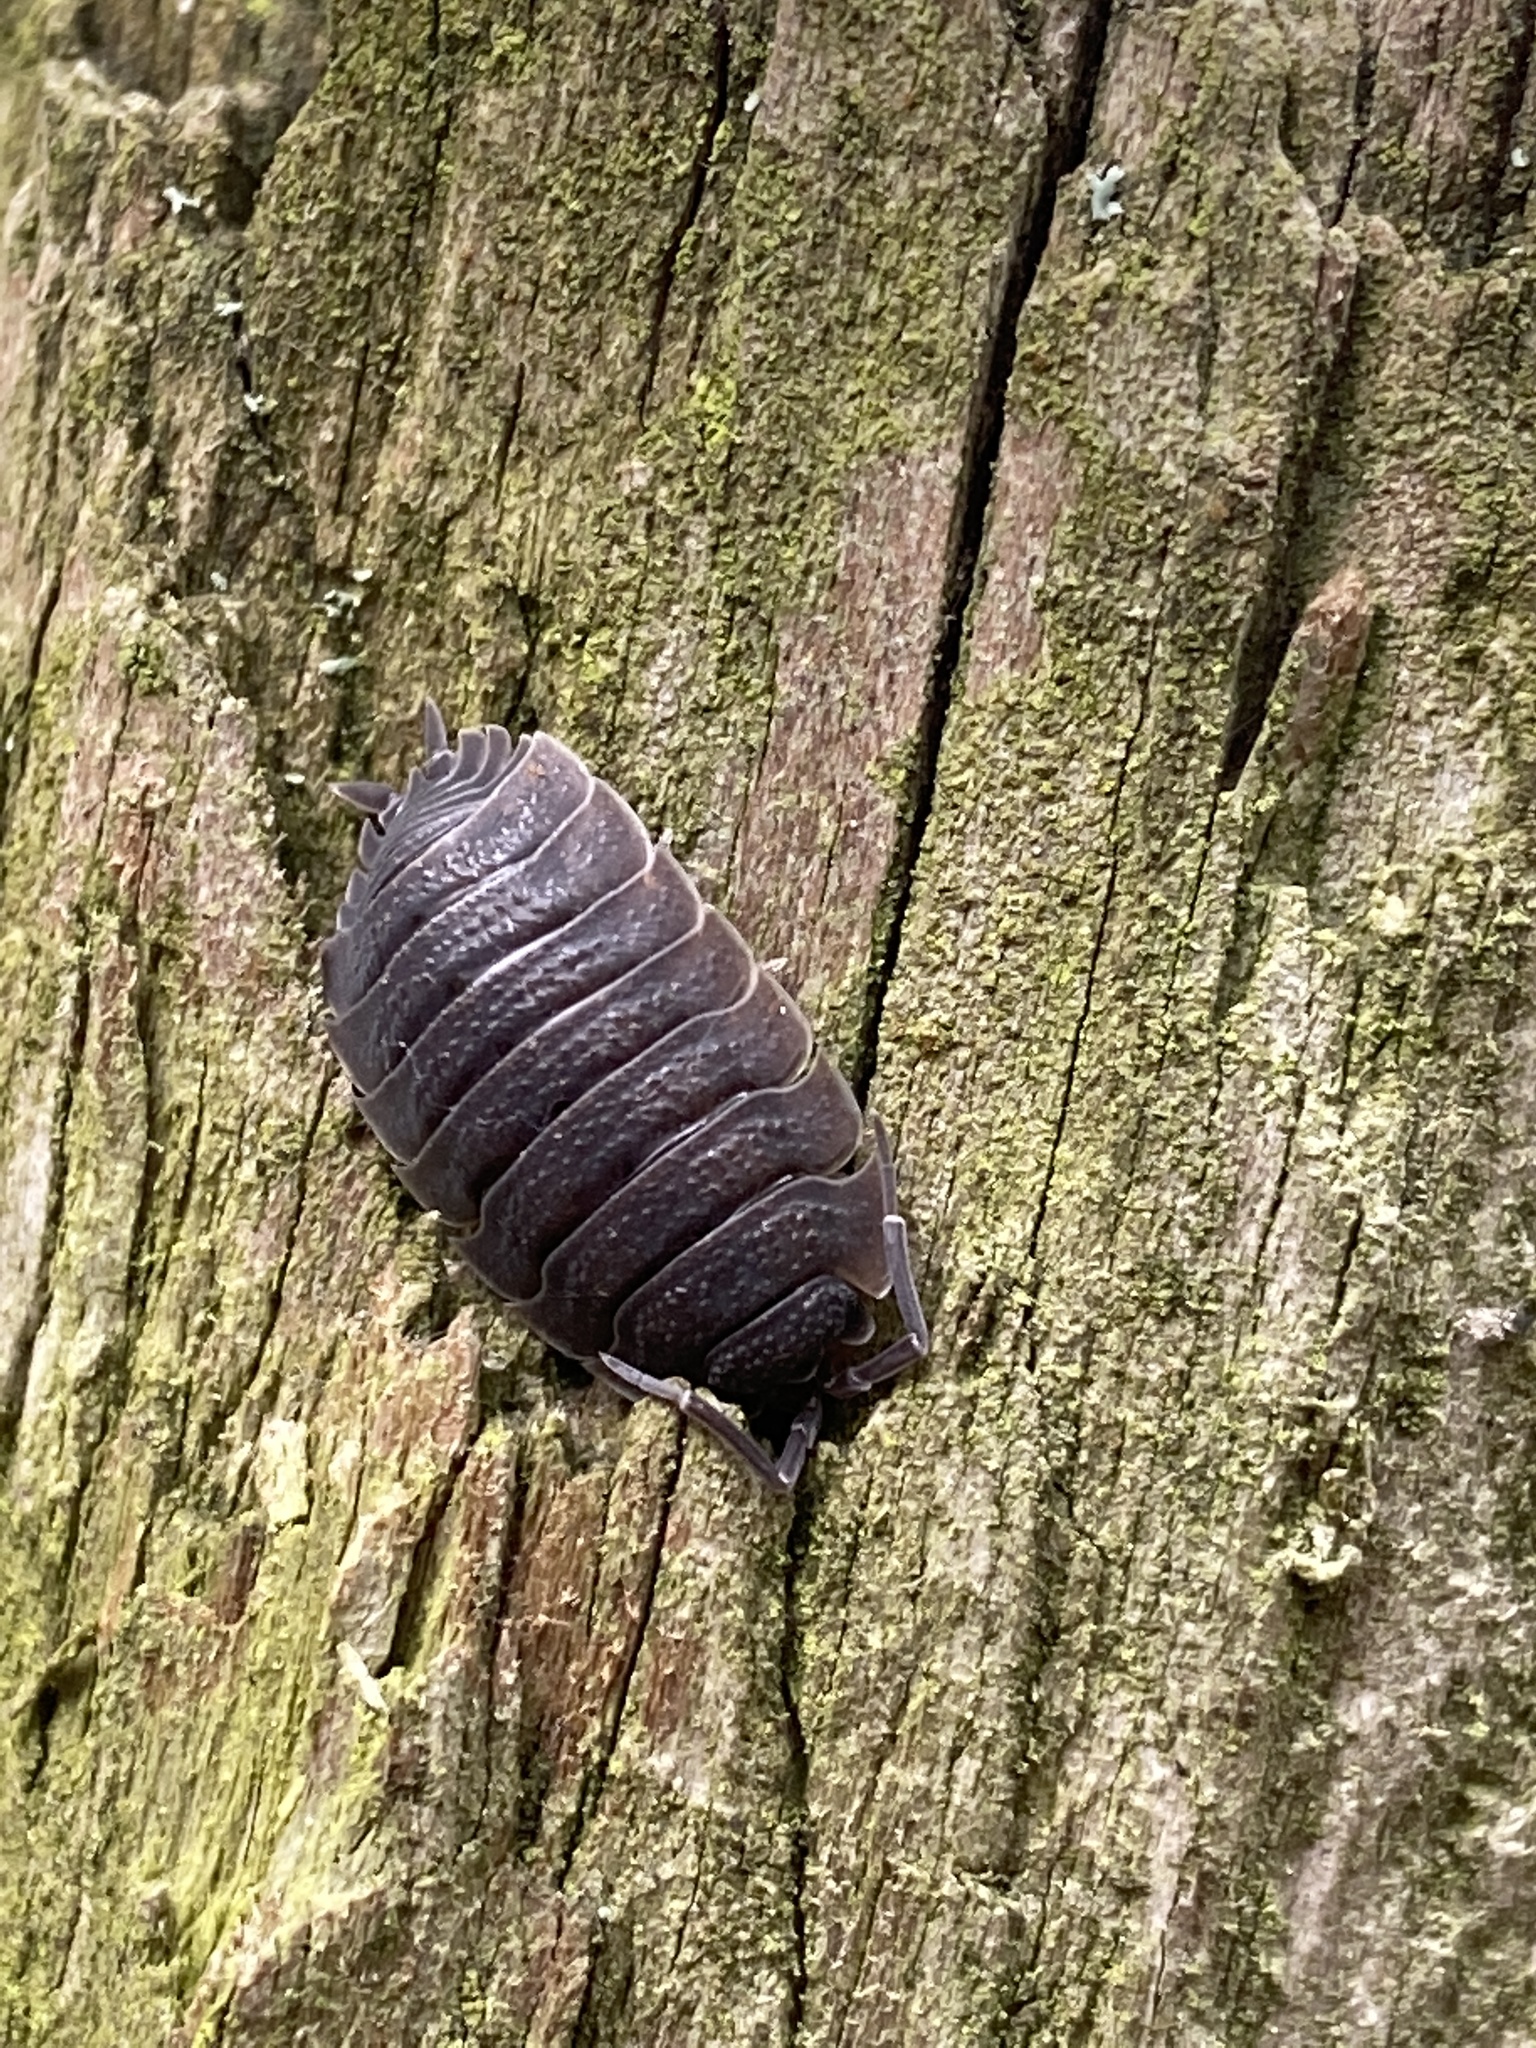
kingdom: Animalia
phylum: Arthropoda
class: Malacostraca
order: Isopoda
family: Porcellionidae
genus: Porcellio
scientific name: Porcellio scaber
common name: Common rough woodlouse
